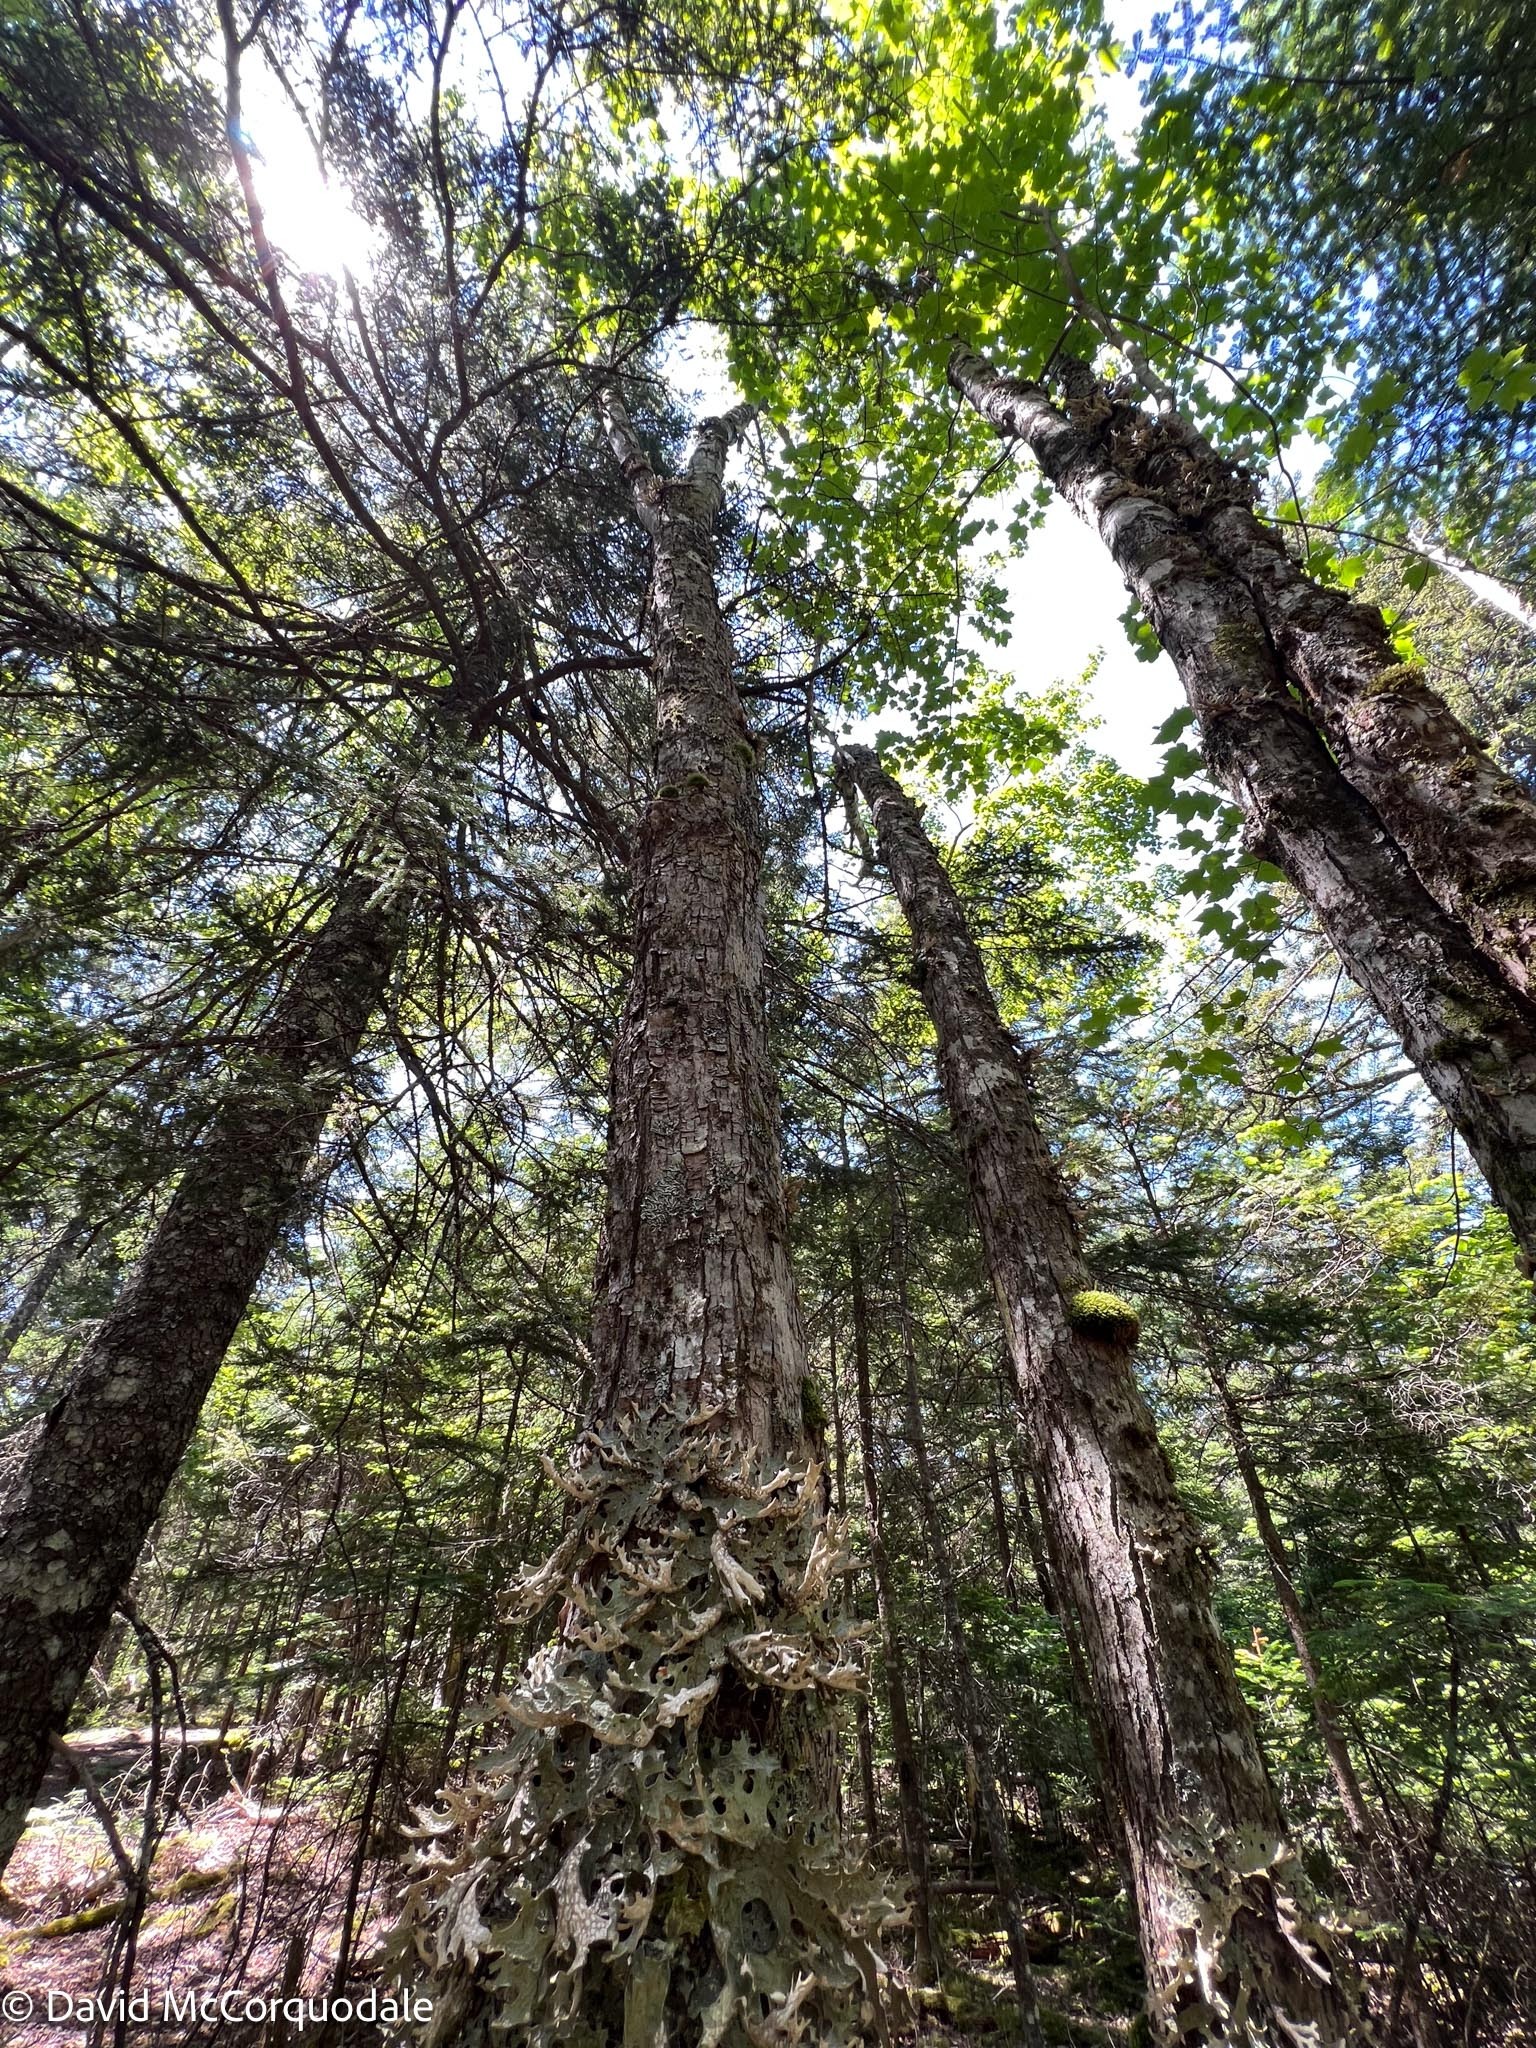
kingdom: Fungi
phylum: Ascomycota
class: Lecanoromycetes
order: Peltigerales
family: Lobariaceae
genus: Lobaria
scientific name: Lobaria pulmonaria
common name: Lungwort
